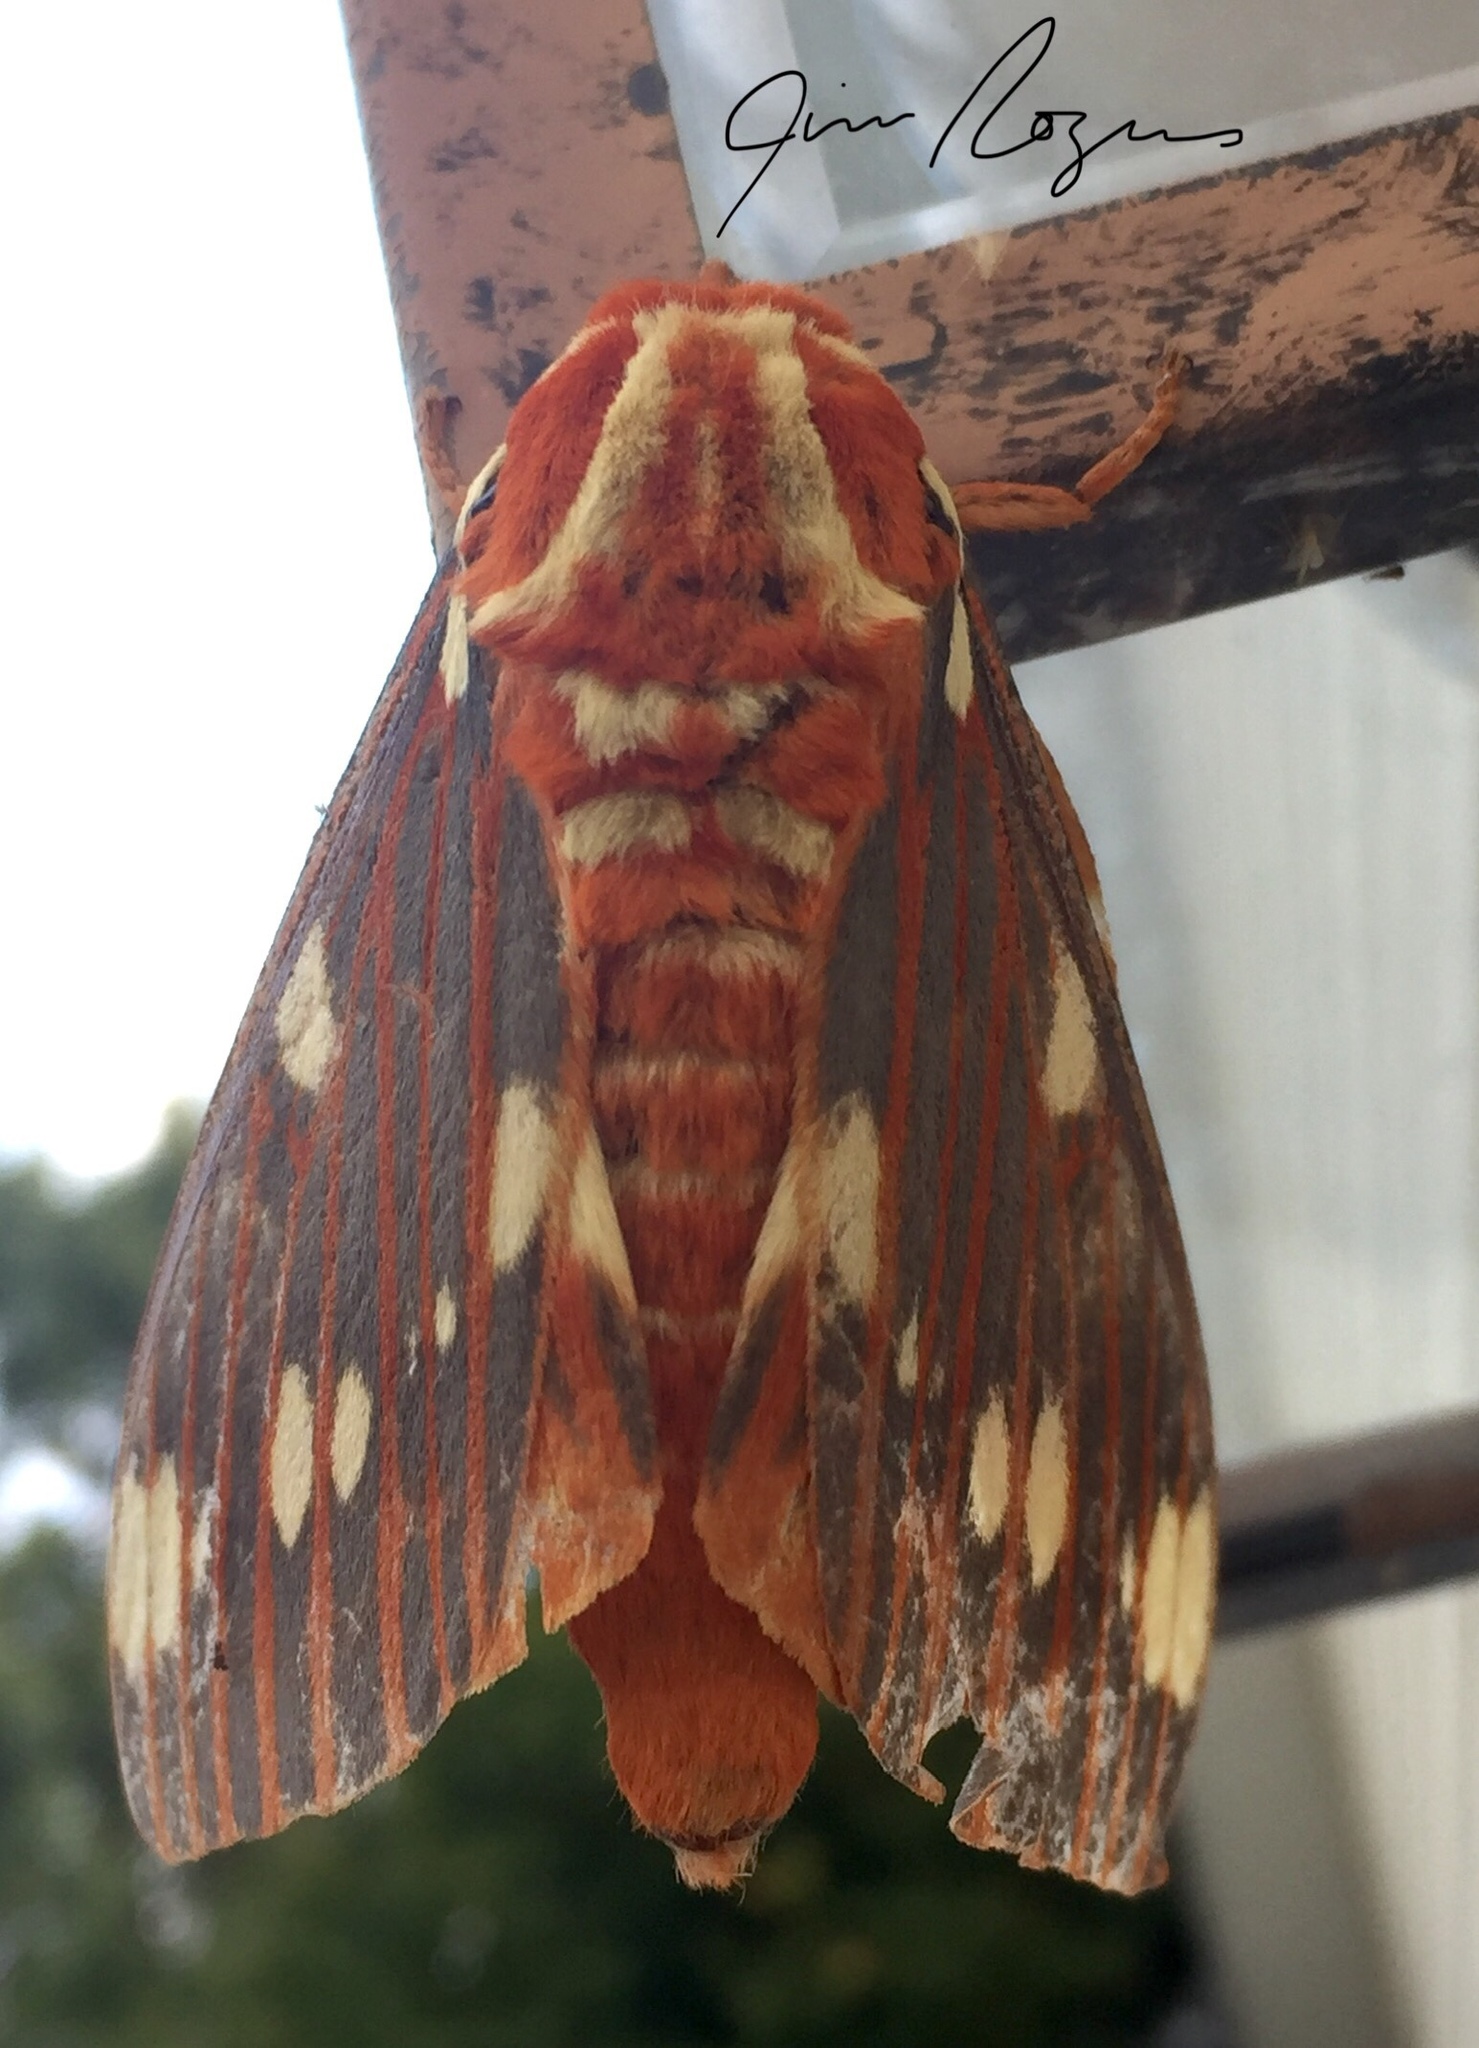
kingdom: Animalia
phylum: Arthropoda
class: Insecta
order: Lepidoptera
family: Saturniidae
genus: Citheronia
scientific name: Citheronia regalis
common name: Hickory horned devil
